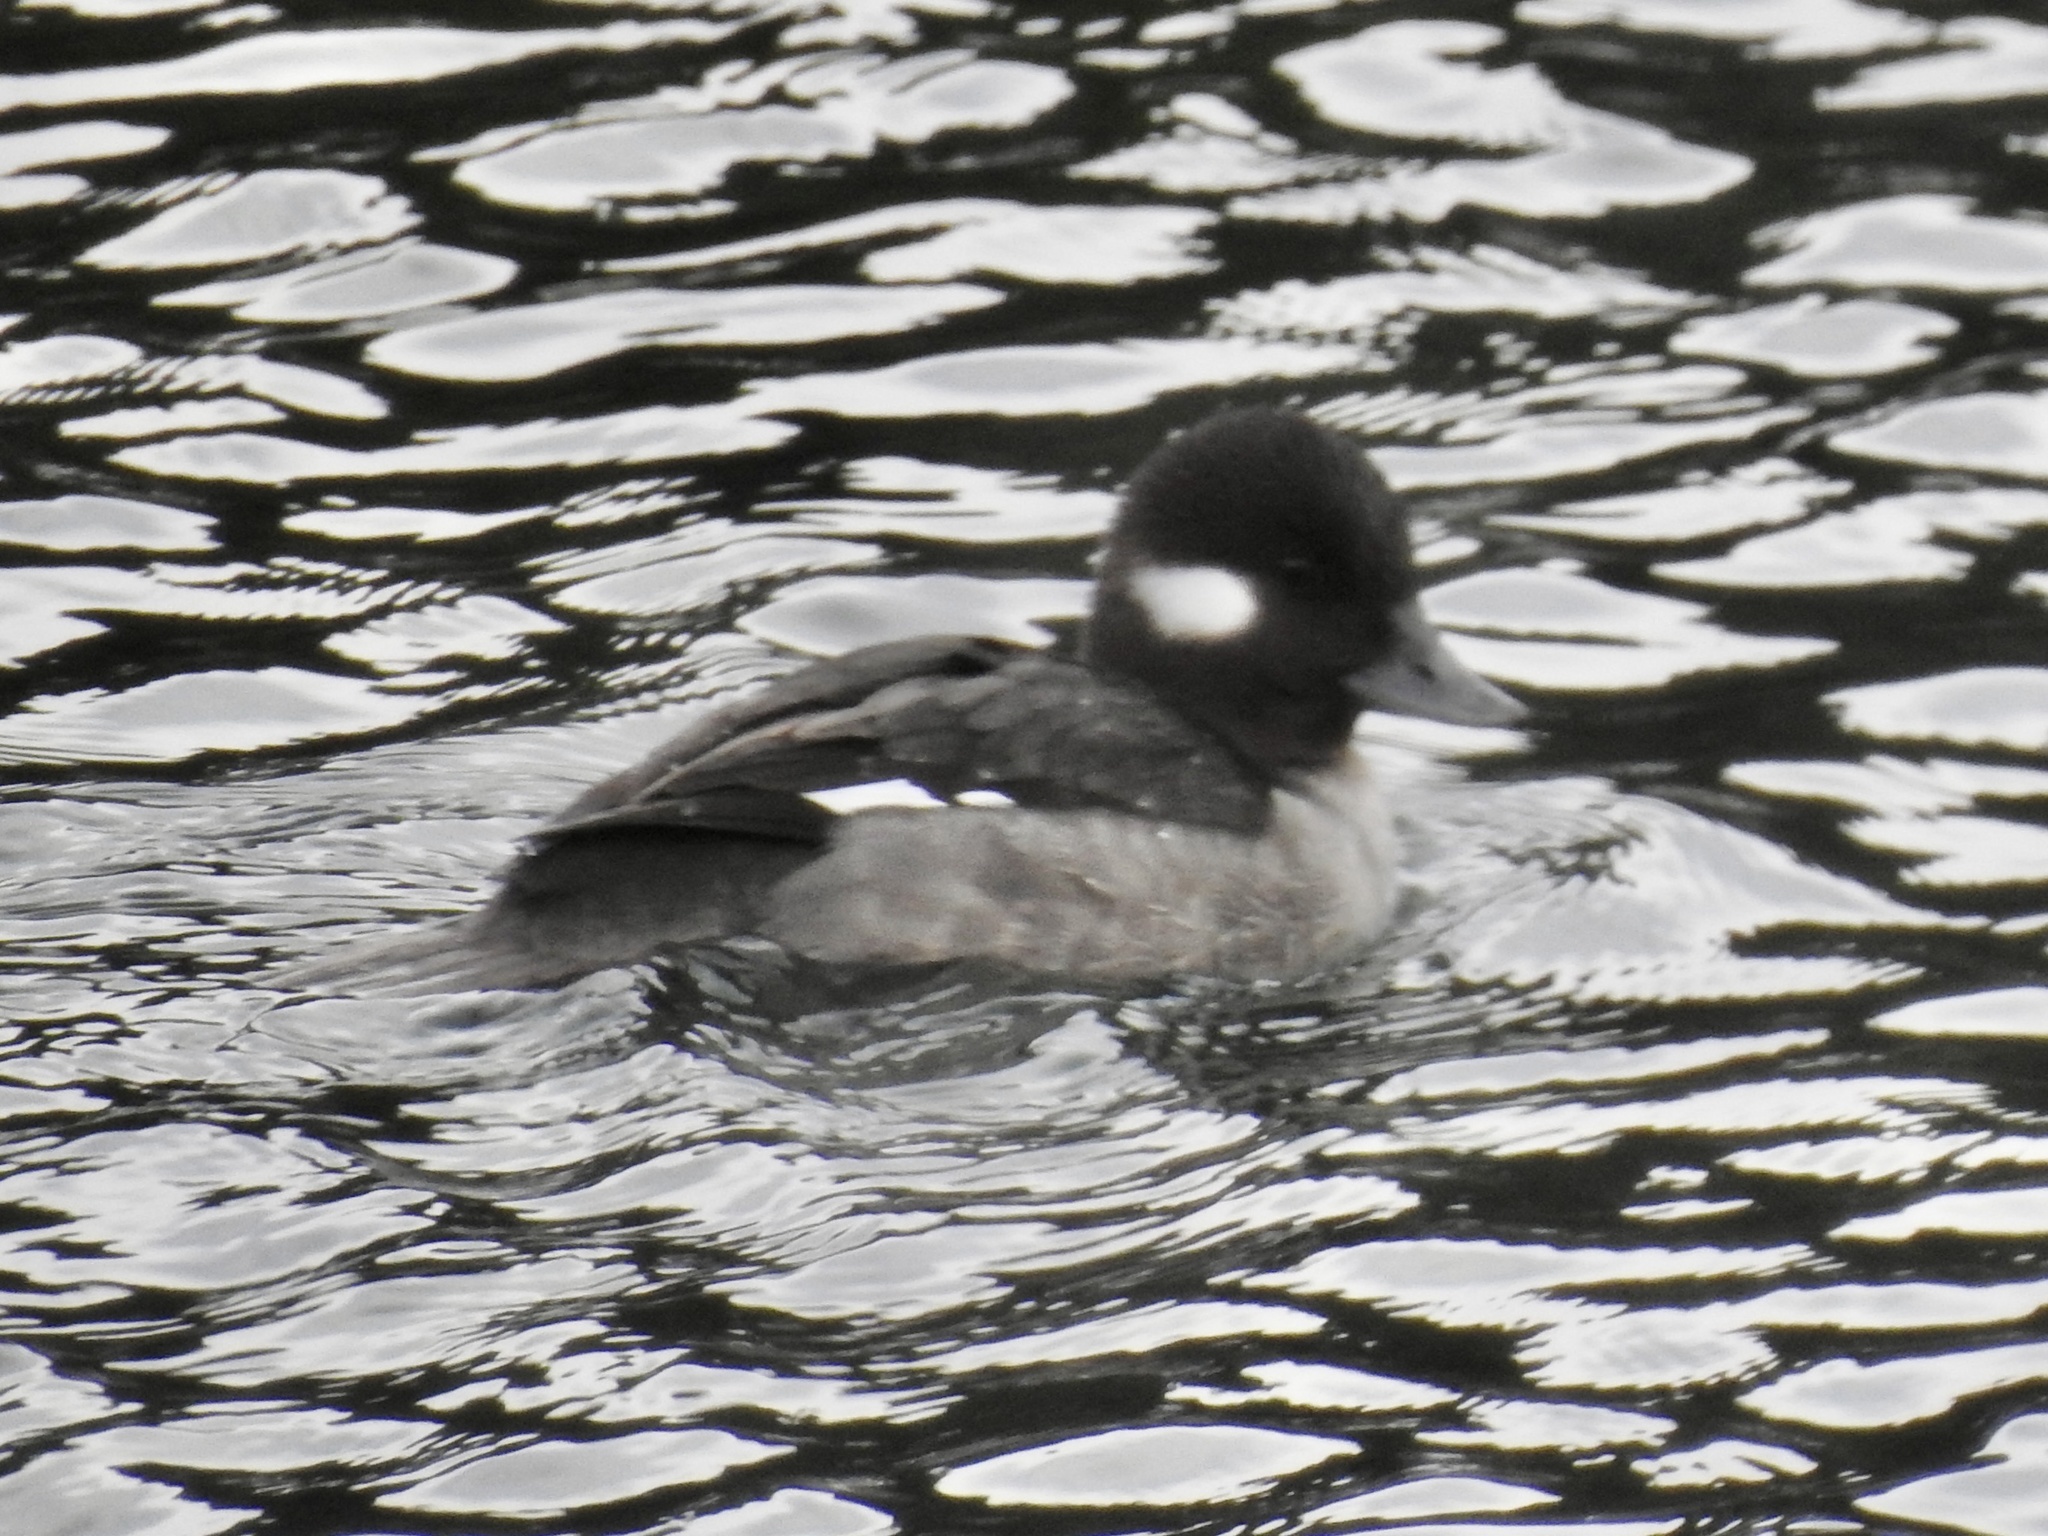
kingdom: Animalia
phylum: Chordata
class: Aves
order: Anseriformes
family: Anatidae
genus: Bucephala
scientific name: Bucephala albeola
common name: Bufflehead
